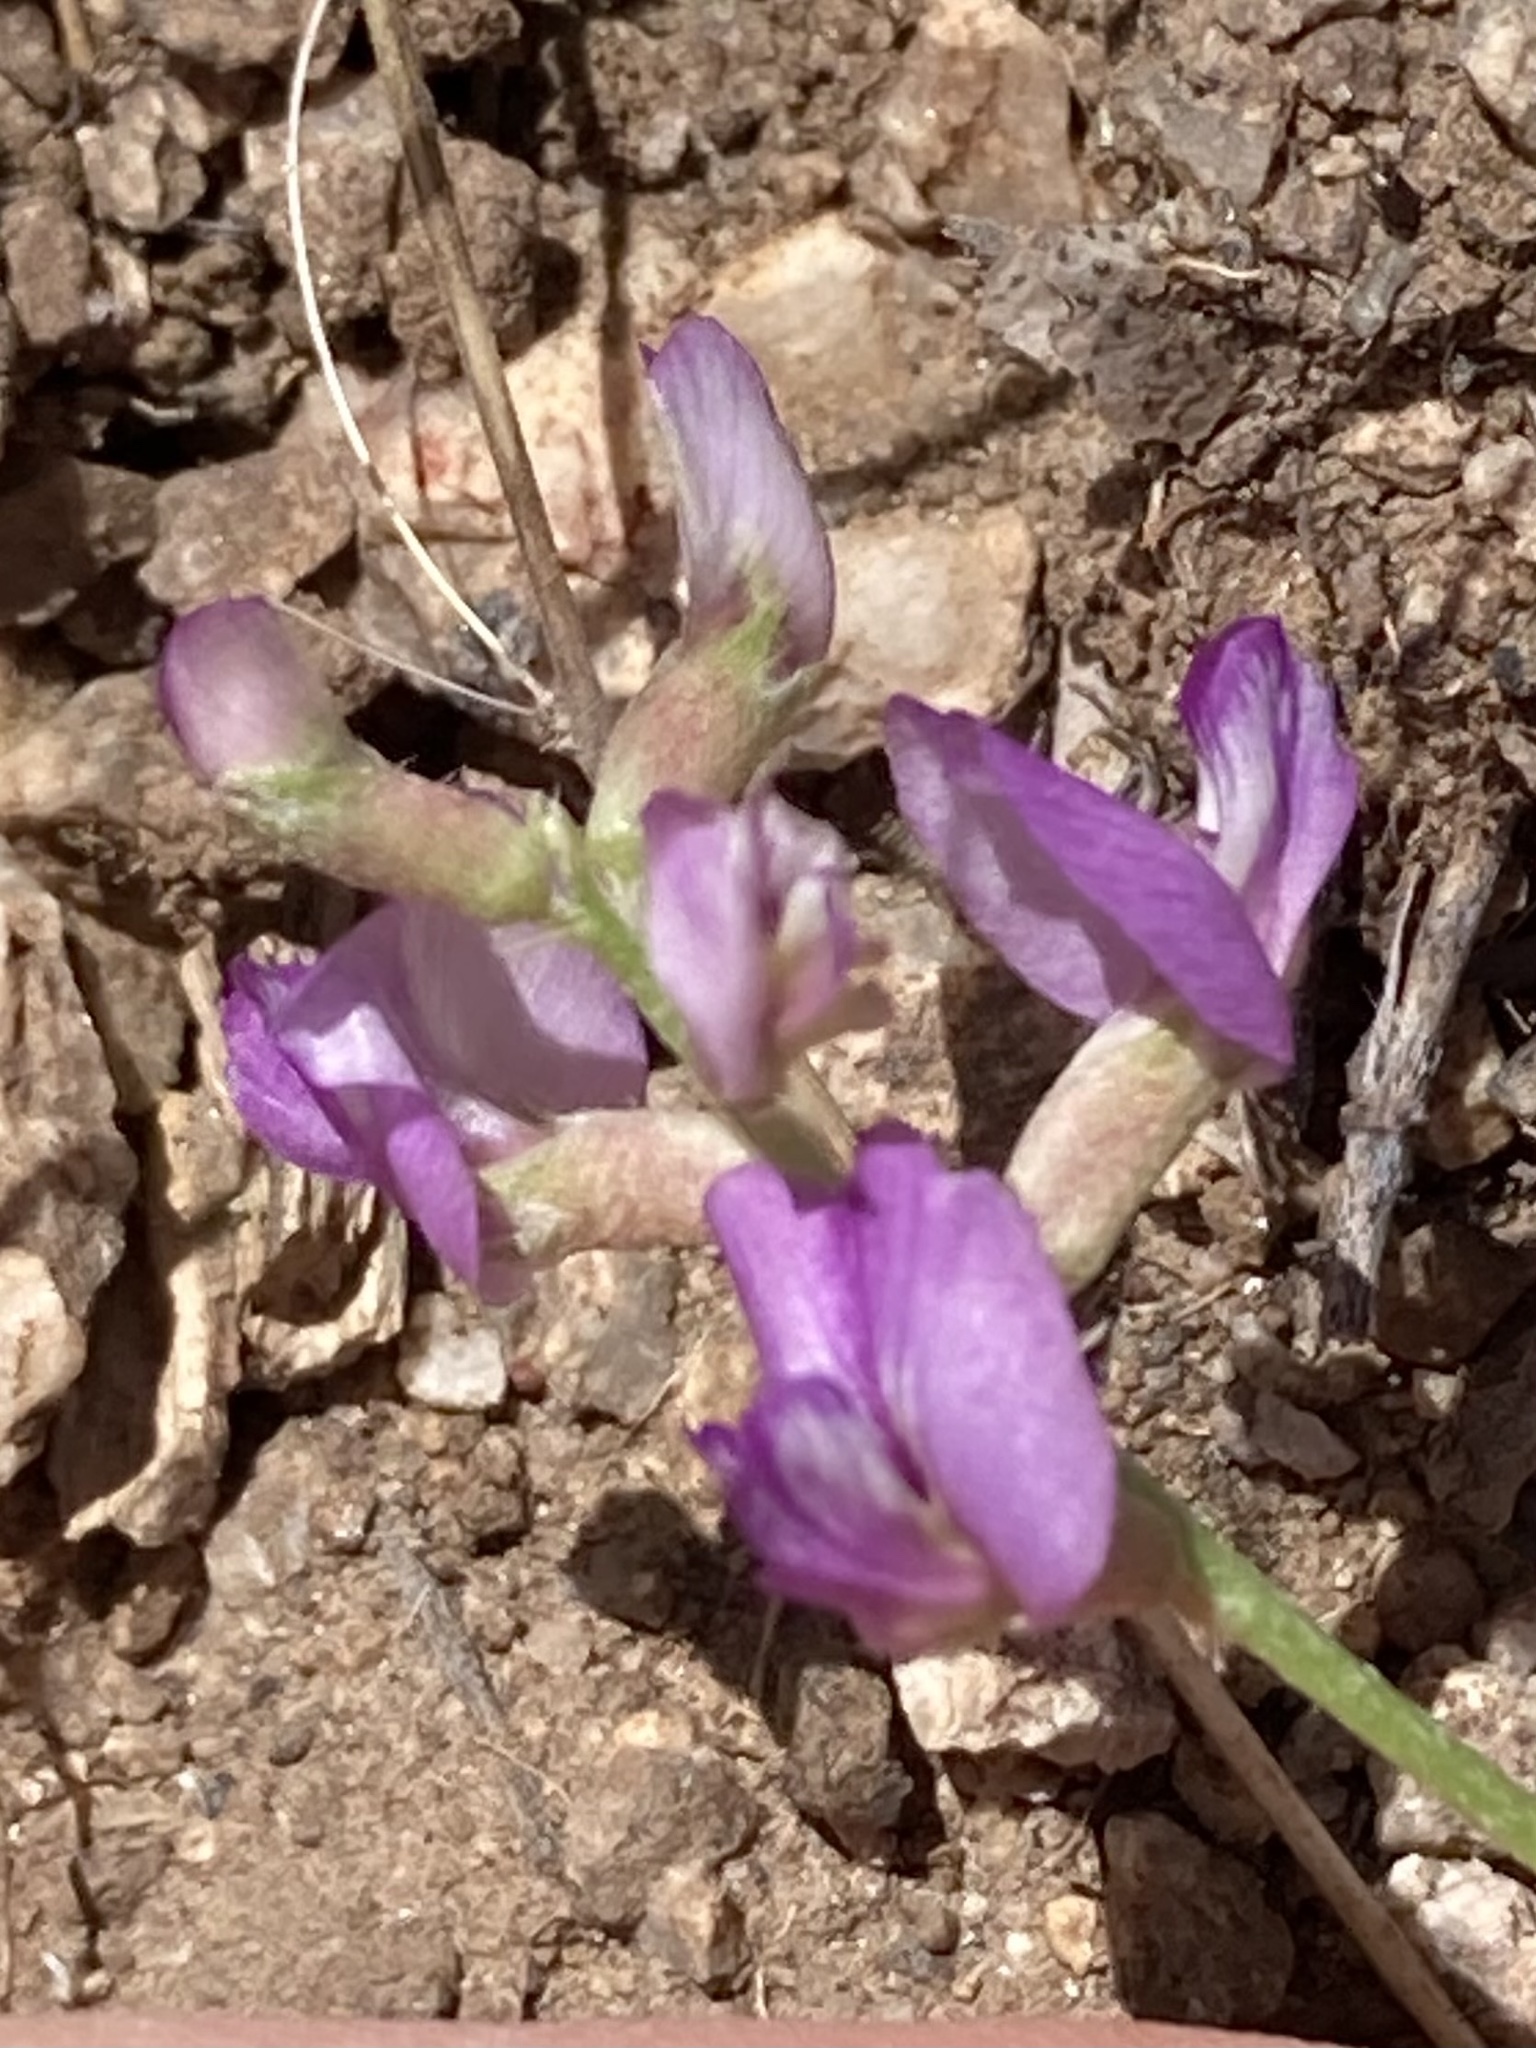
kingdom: Plantae
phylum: Tracheophyta
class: Magnoliopsida
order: Fabales
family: Fabaceae
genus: Astragalus
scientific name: Astragalus nothoxys
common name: Beaked milk-vetch
